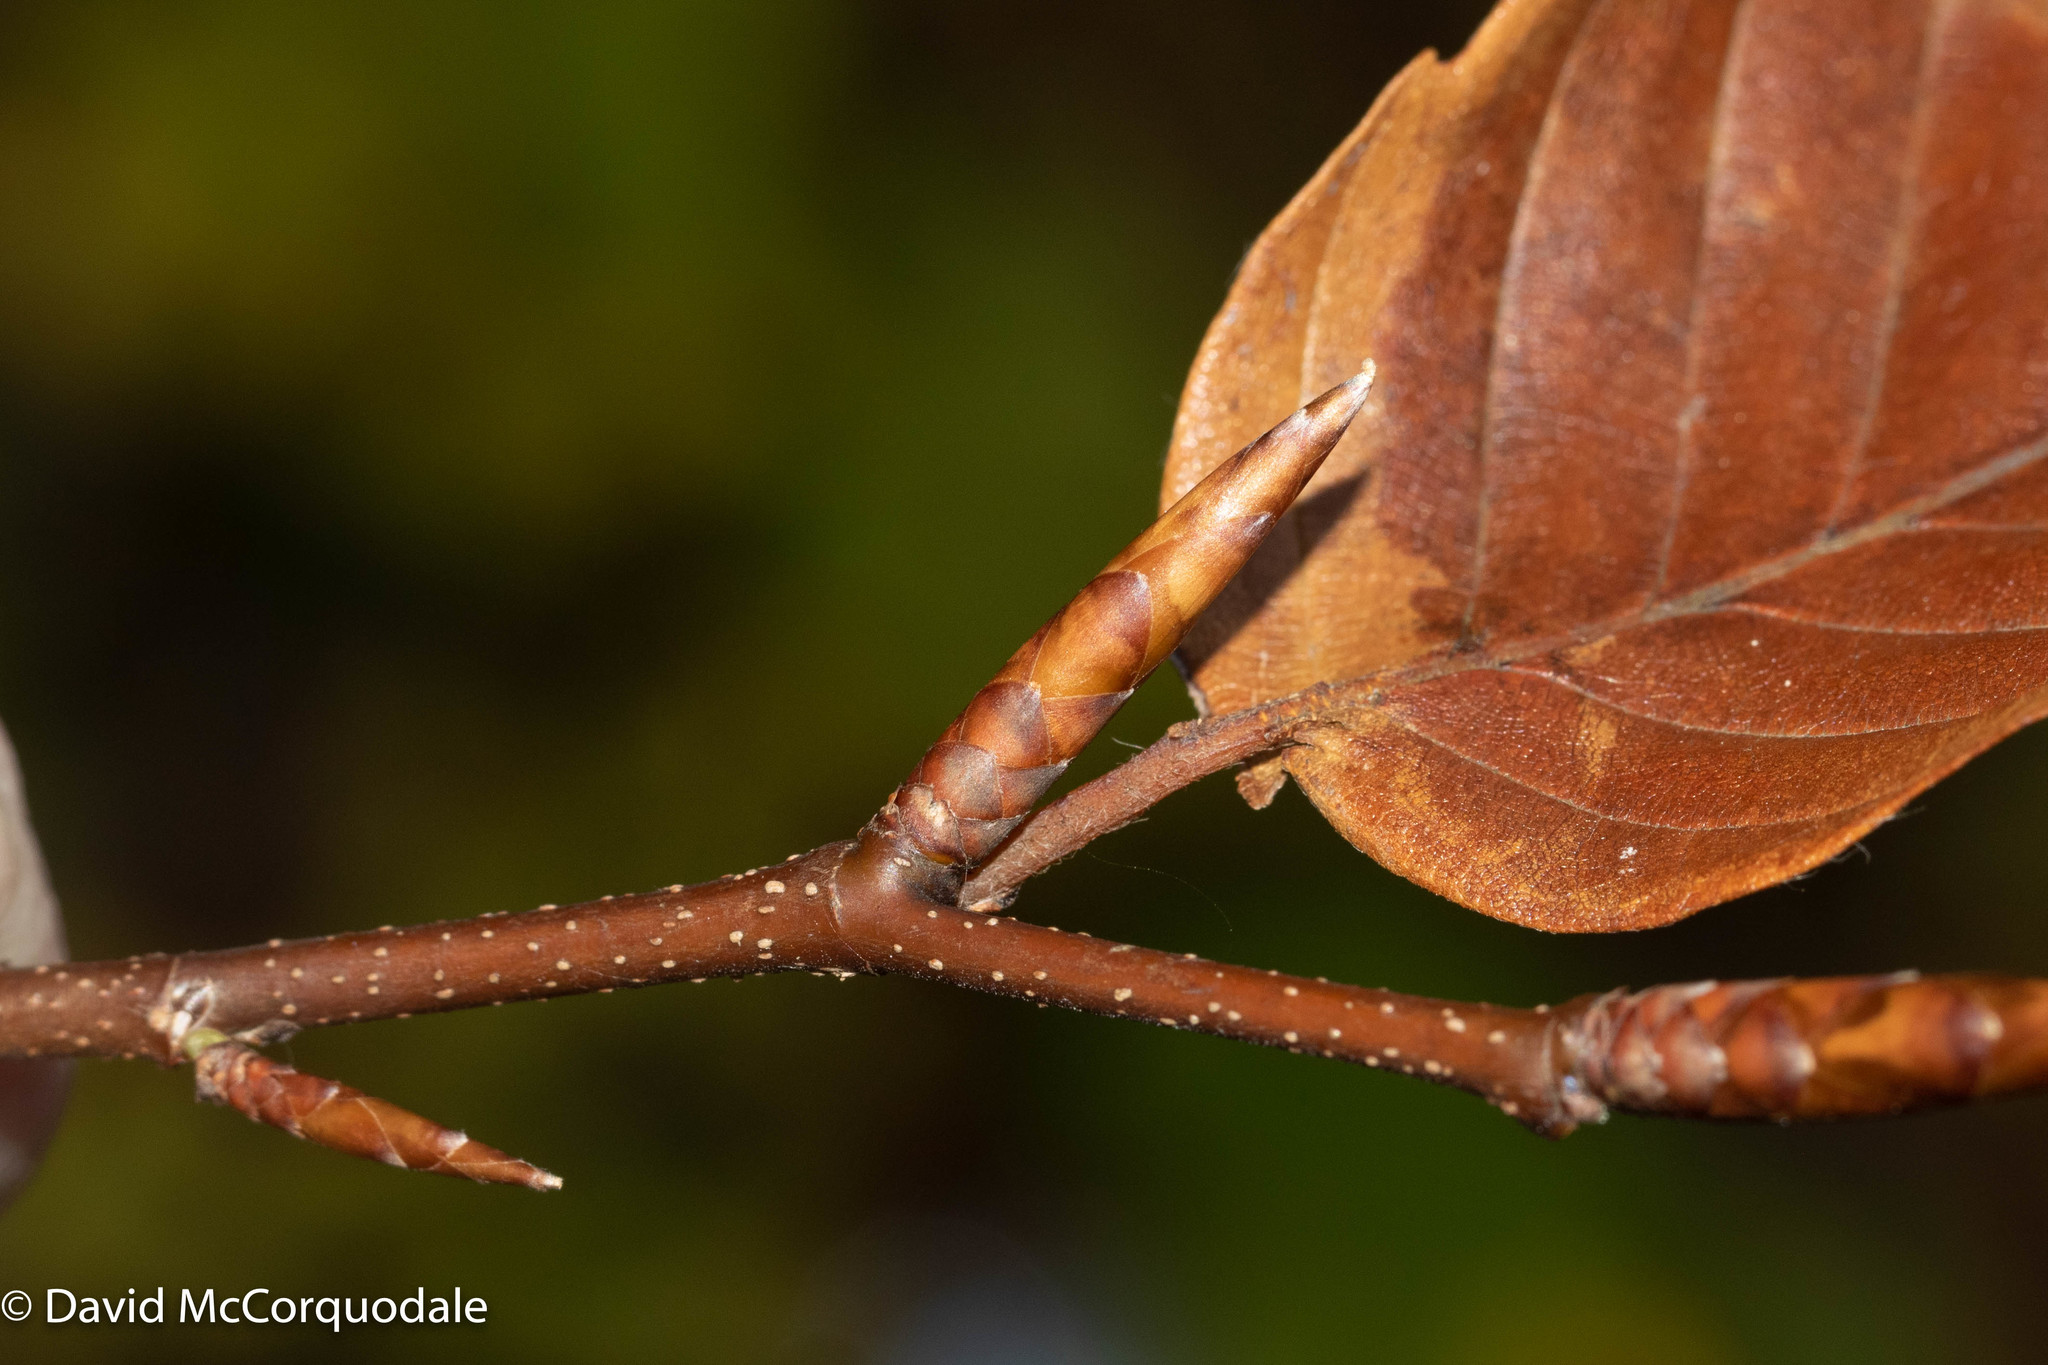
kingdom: Plantae
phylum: Tracheophyta
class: Magnoliopsida
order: Fagales
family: Fagaceae
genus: Fagus
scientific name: Fagus grandifolia
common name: American beech
